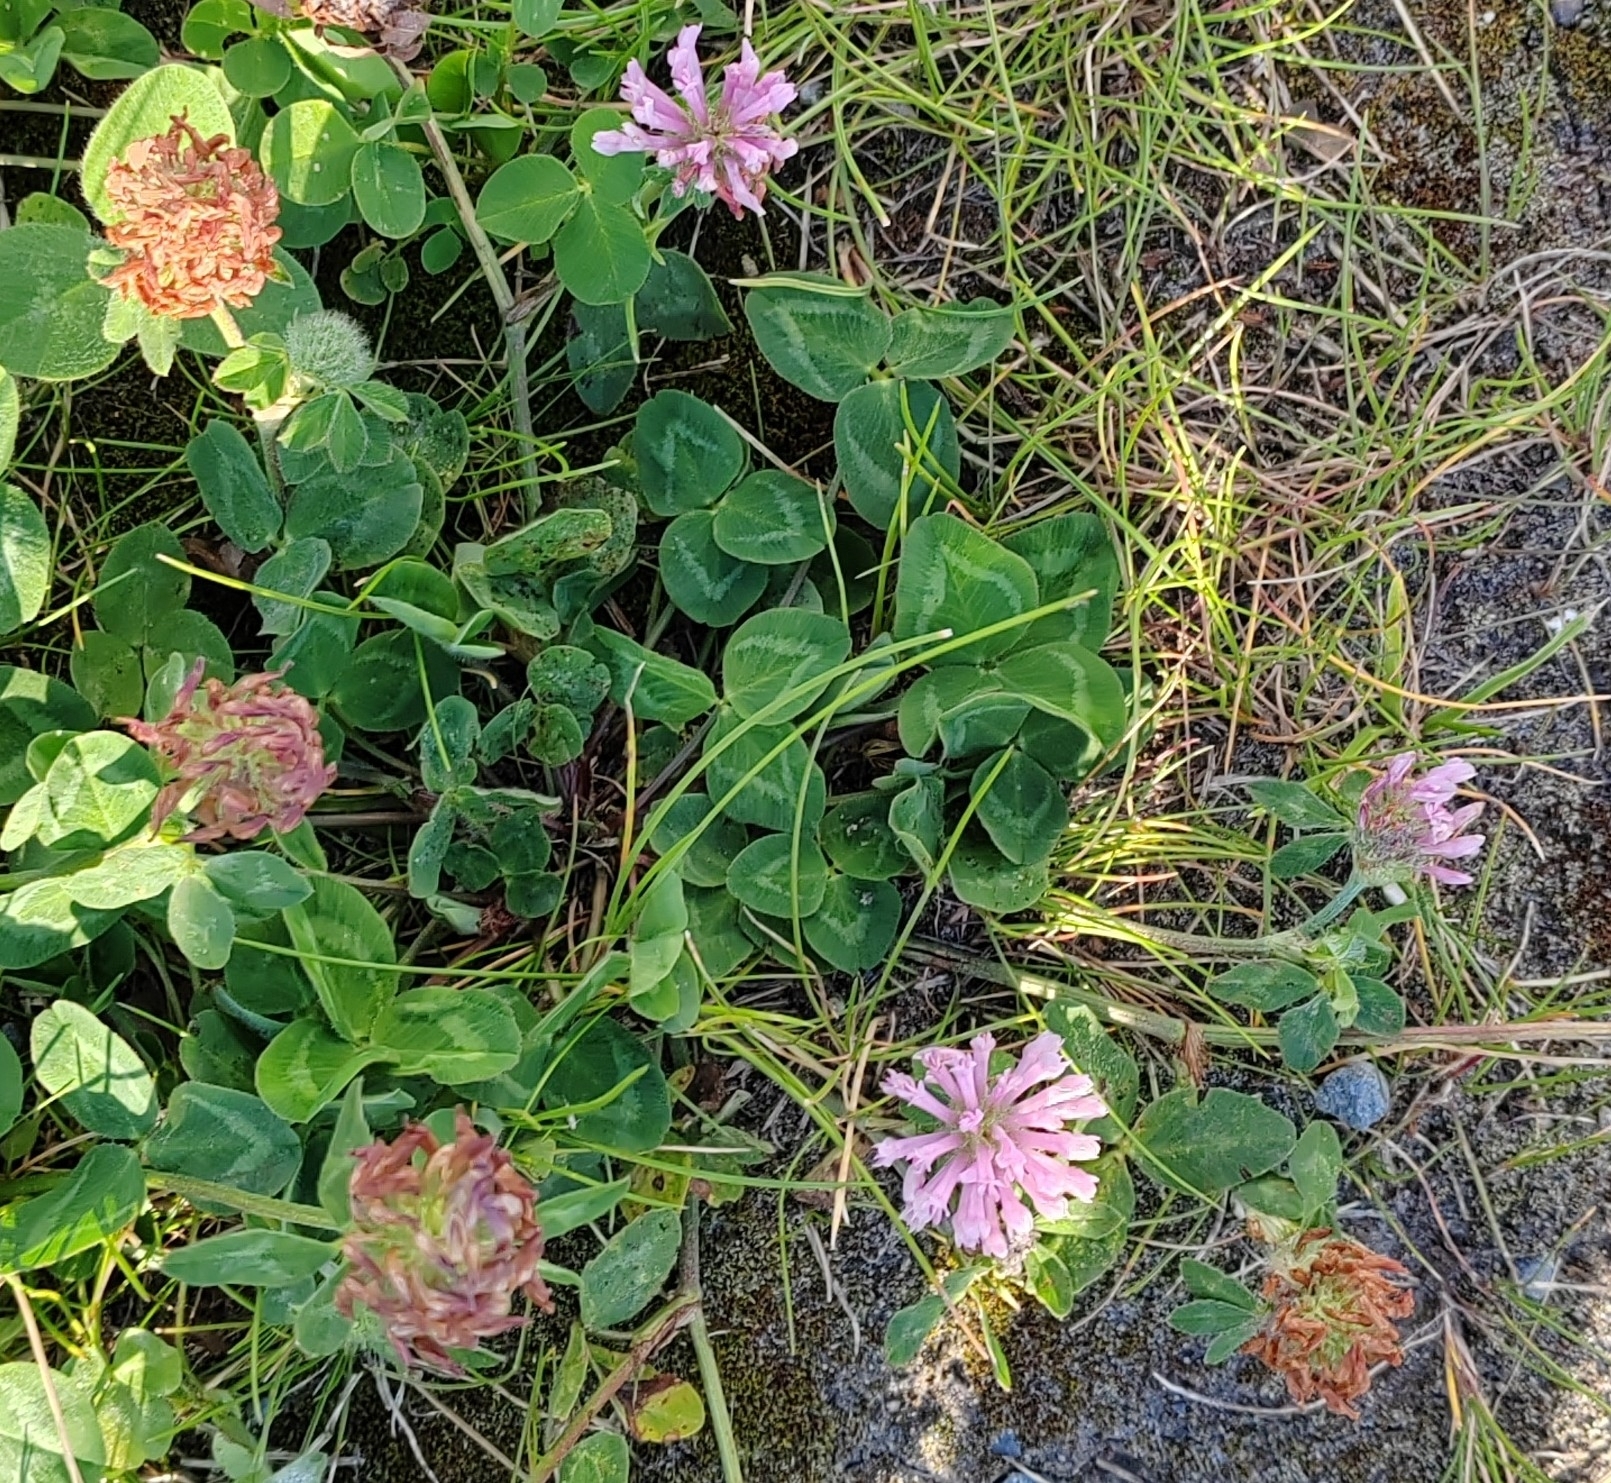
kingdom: Plantae
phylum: Tracheophyta
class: Magnoliopsida
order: Fabales
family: Fabaceae
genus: Trifolium
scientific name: Trifolium pratense
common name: Red clover
